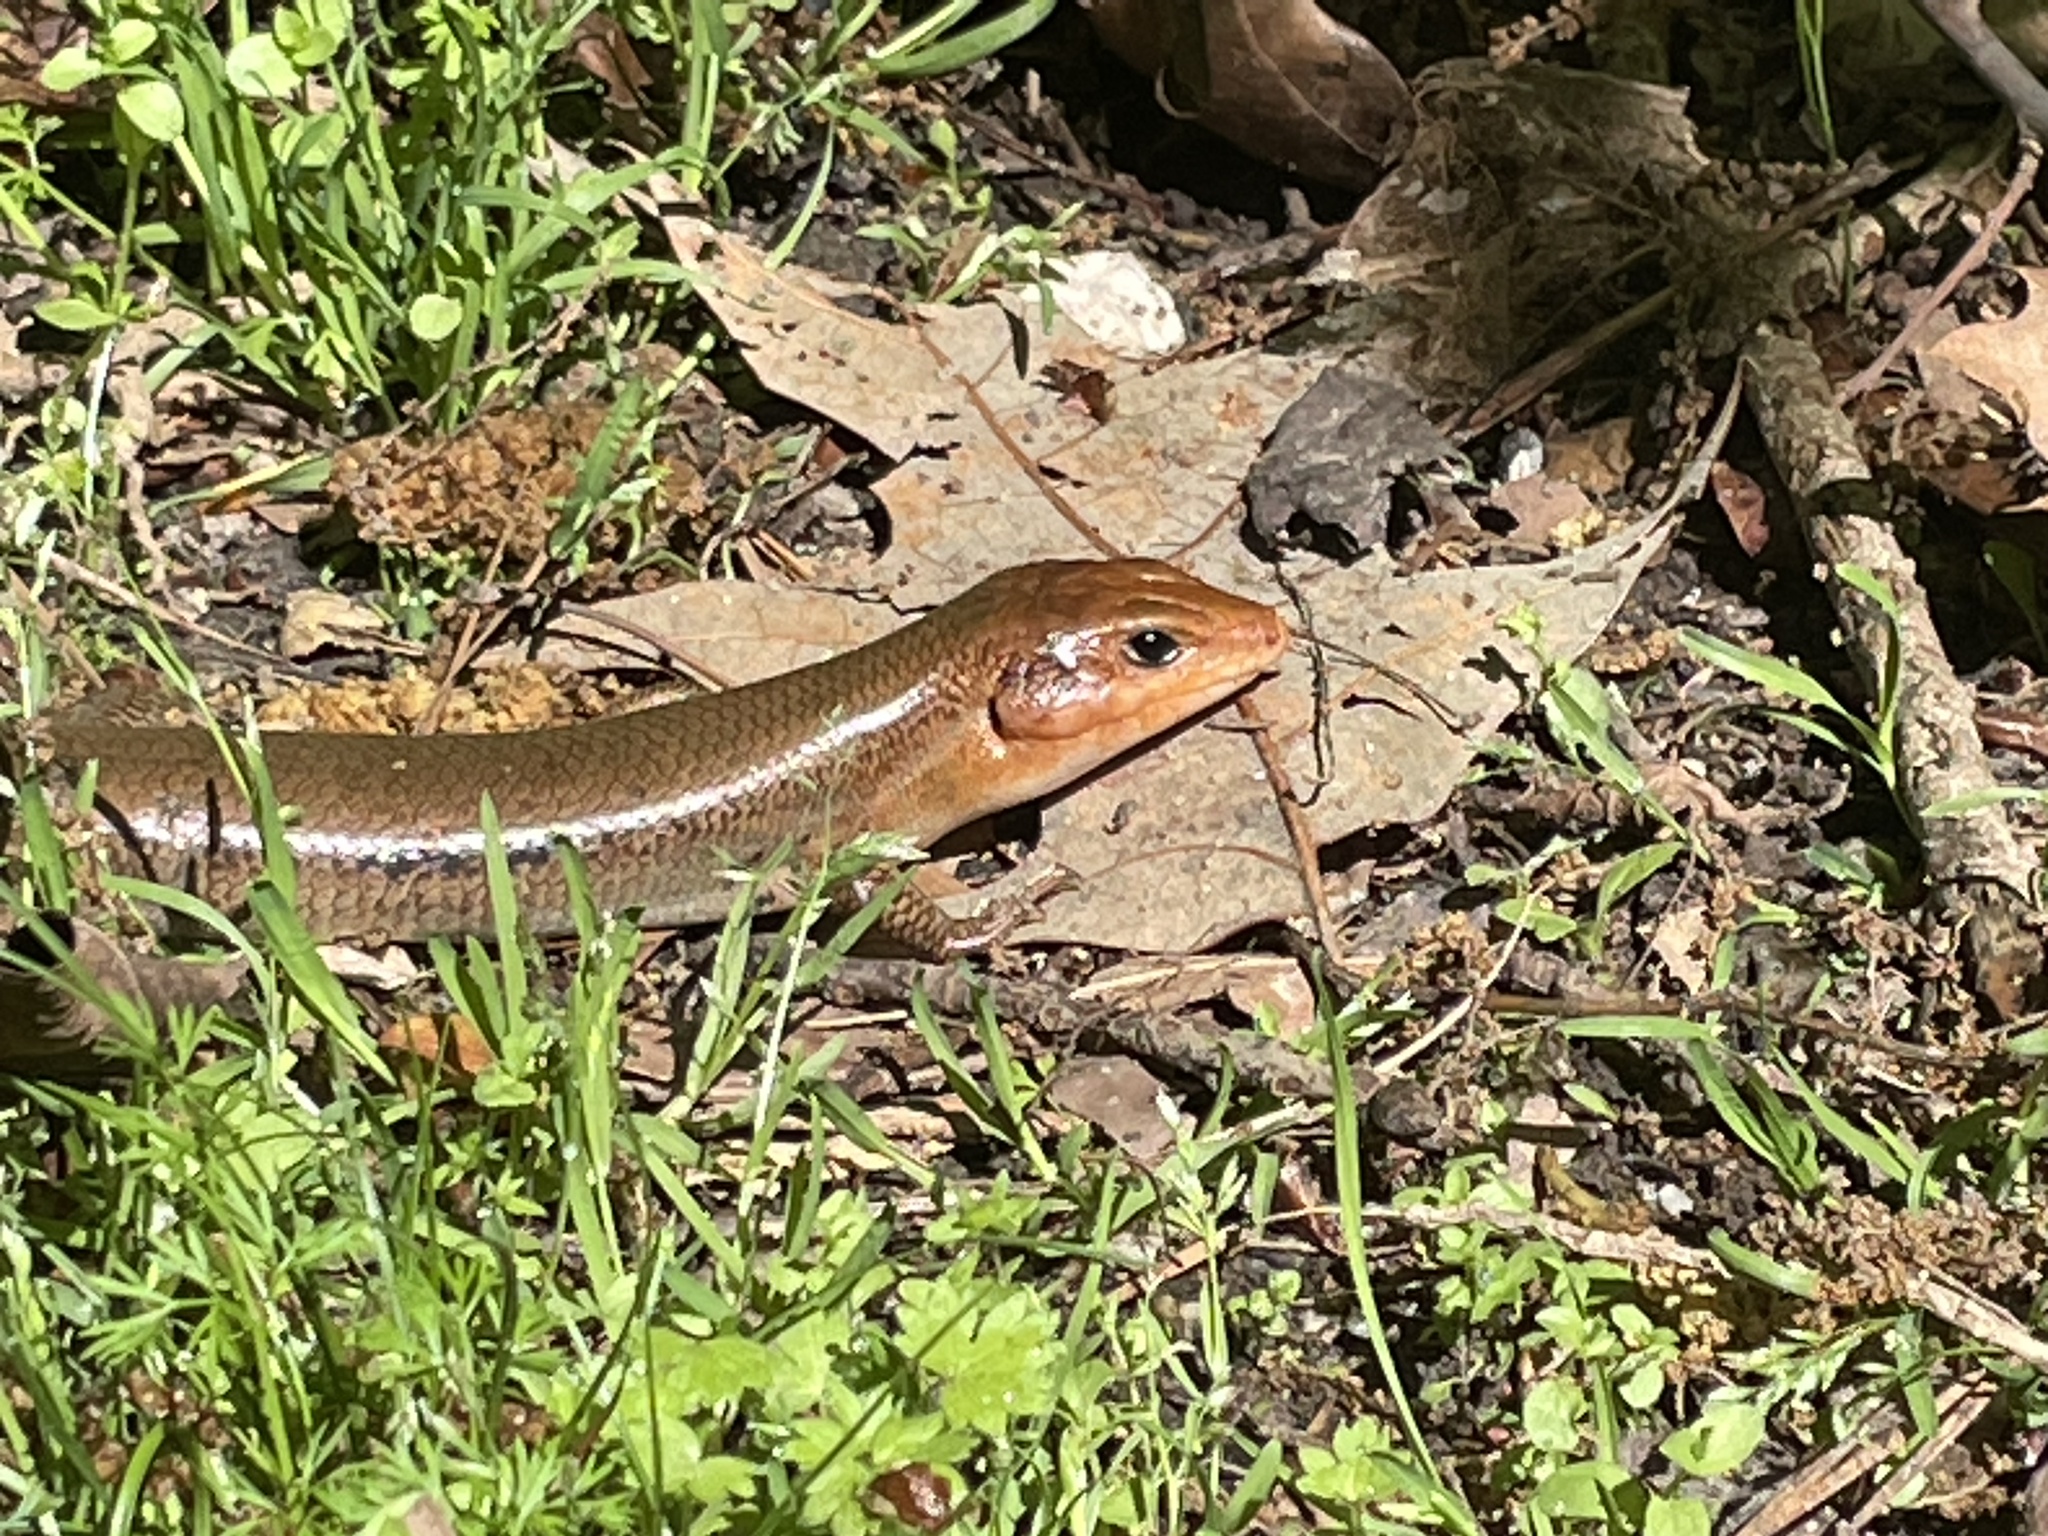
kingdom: Animalia
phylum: Chordata
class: Squamata
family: Scincidae
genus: Plestiodon
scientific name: Plestiodon laticeps
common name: Broadhead skink
